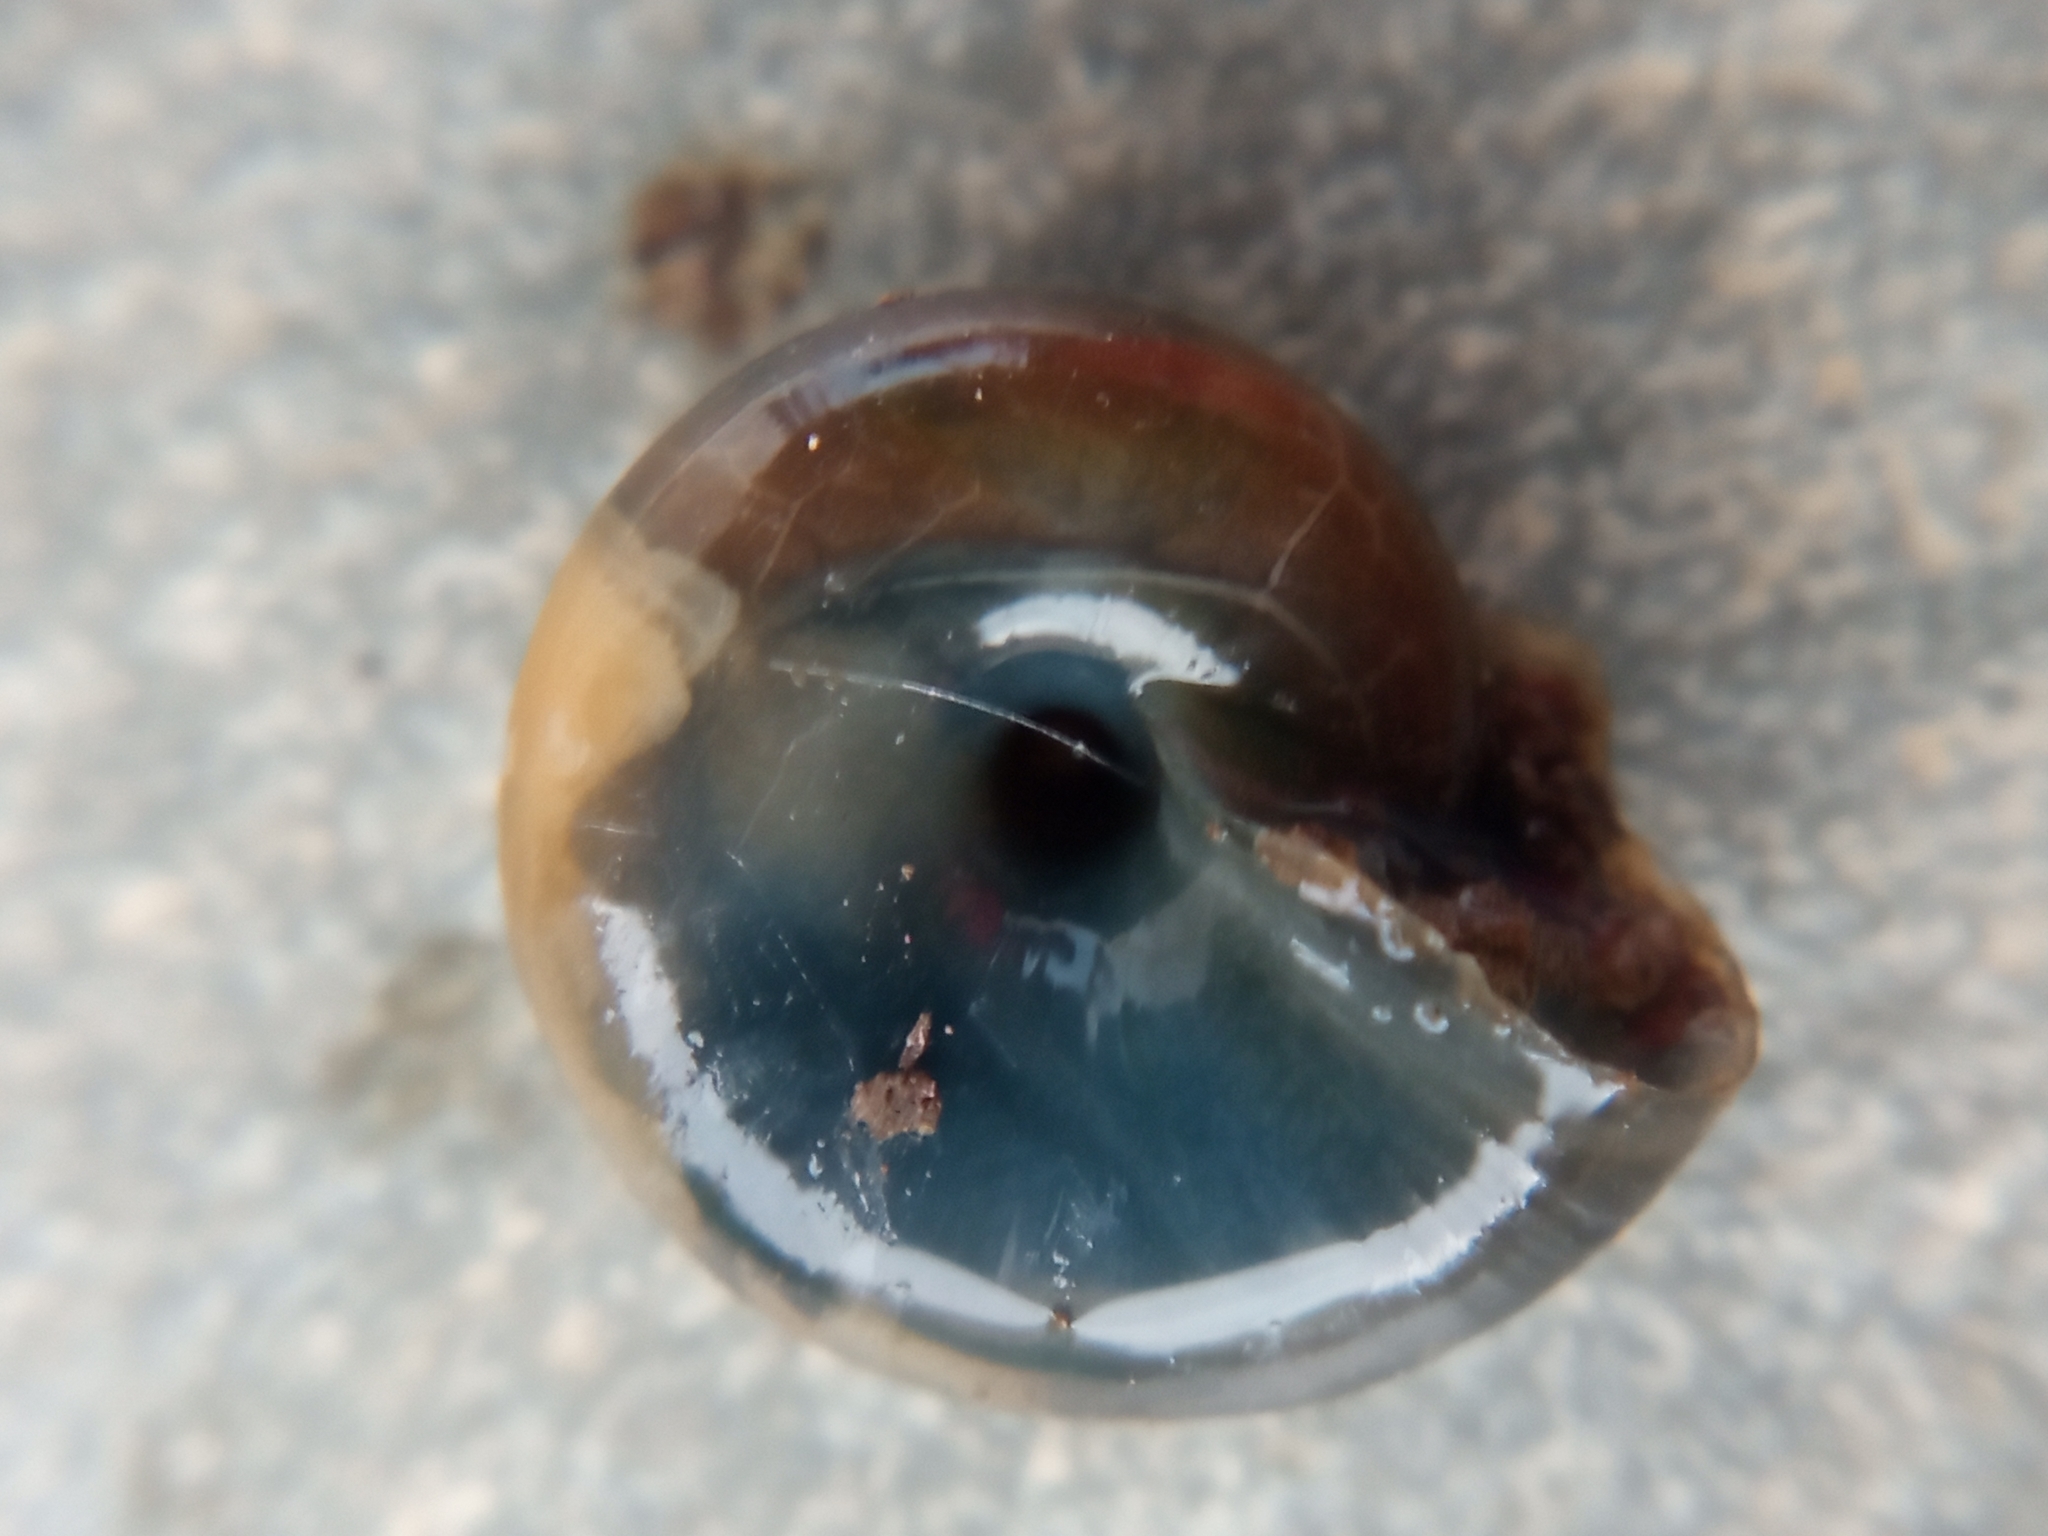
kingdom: Animalia
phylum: Mollusca
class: Gastropoda
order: Stylommatophora
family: Oxychilidae
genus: Oxychilus
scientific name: Oxychilus draparnaudi
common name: Draparnaud's glass snail
